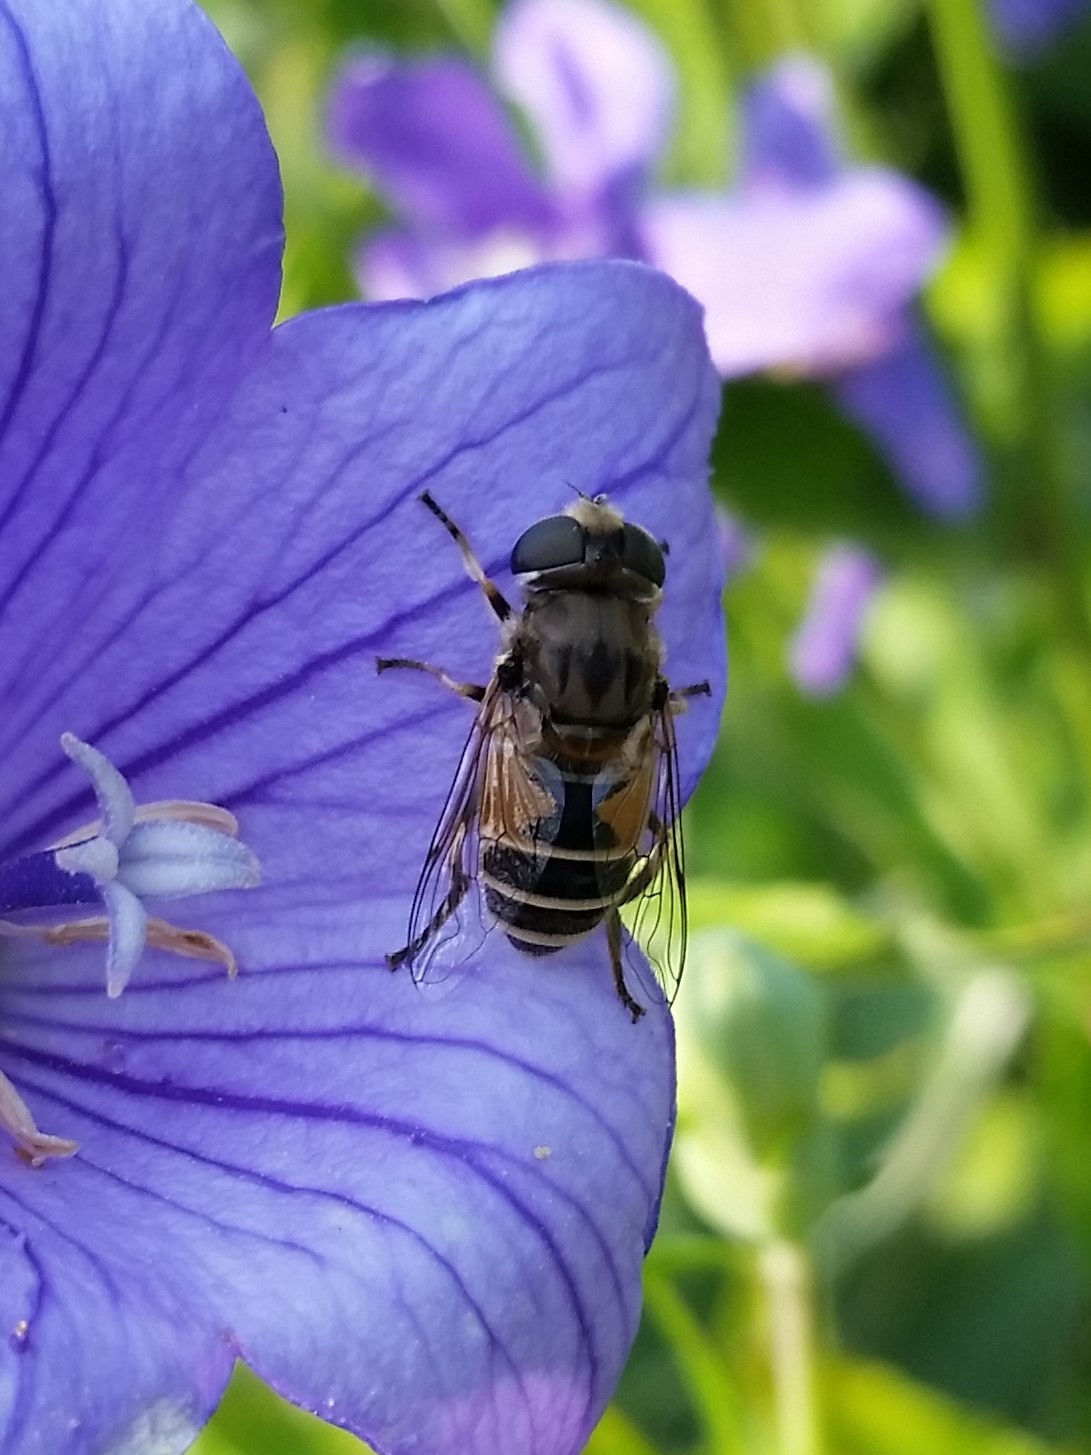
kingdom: Animalia
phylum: Arthropoda
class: Insecta
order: Diptera
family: Syrphidae
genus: Eristalis
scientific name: Eristalis arbustorum
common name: Hover fly
